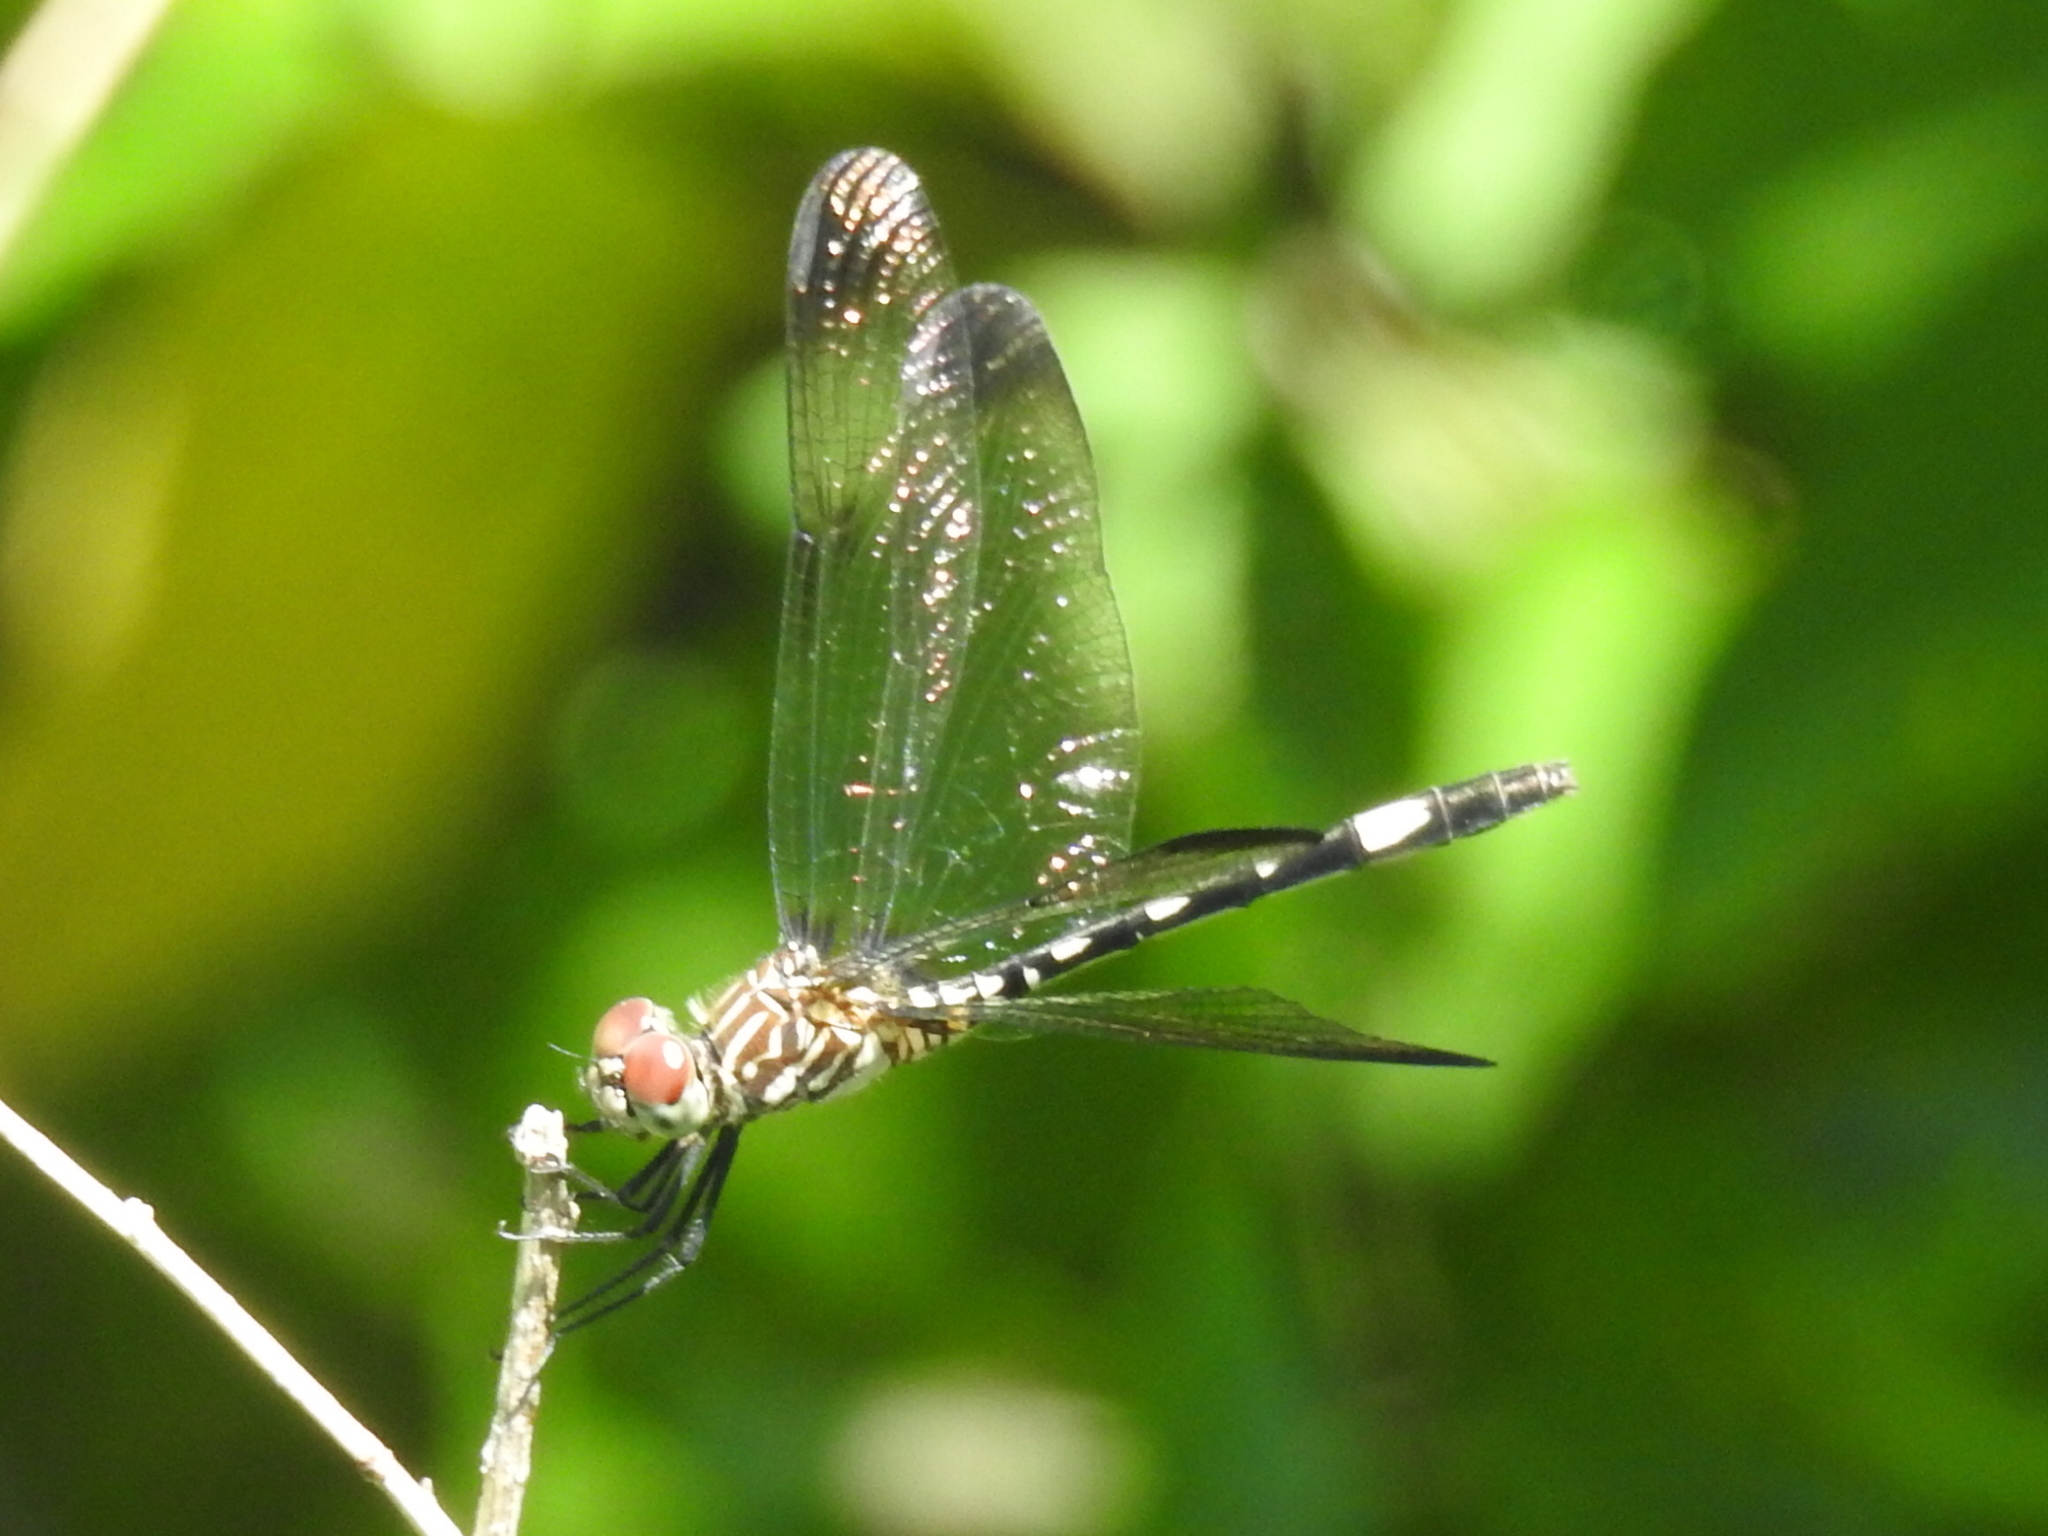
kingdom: Animalia
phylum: Arthropoda
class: Insecta
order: Odonata
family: Libellulidae
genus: Dythemis
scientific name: Dythemis velox
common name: Swift setwing
